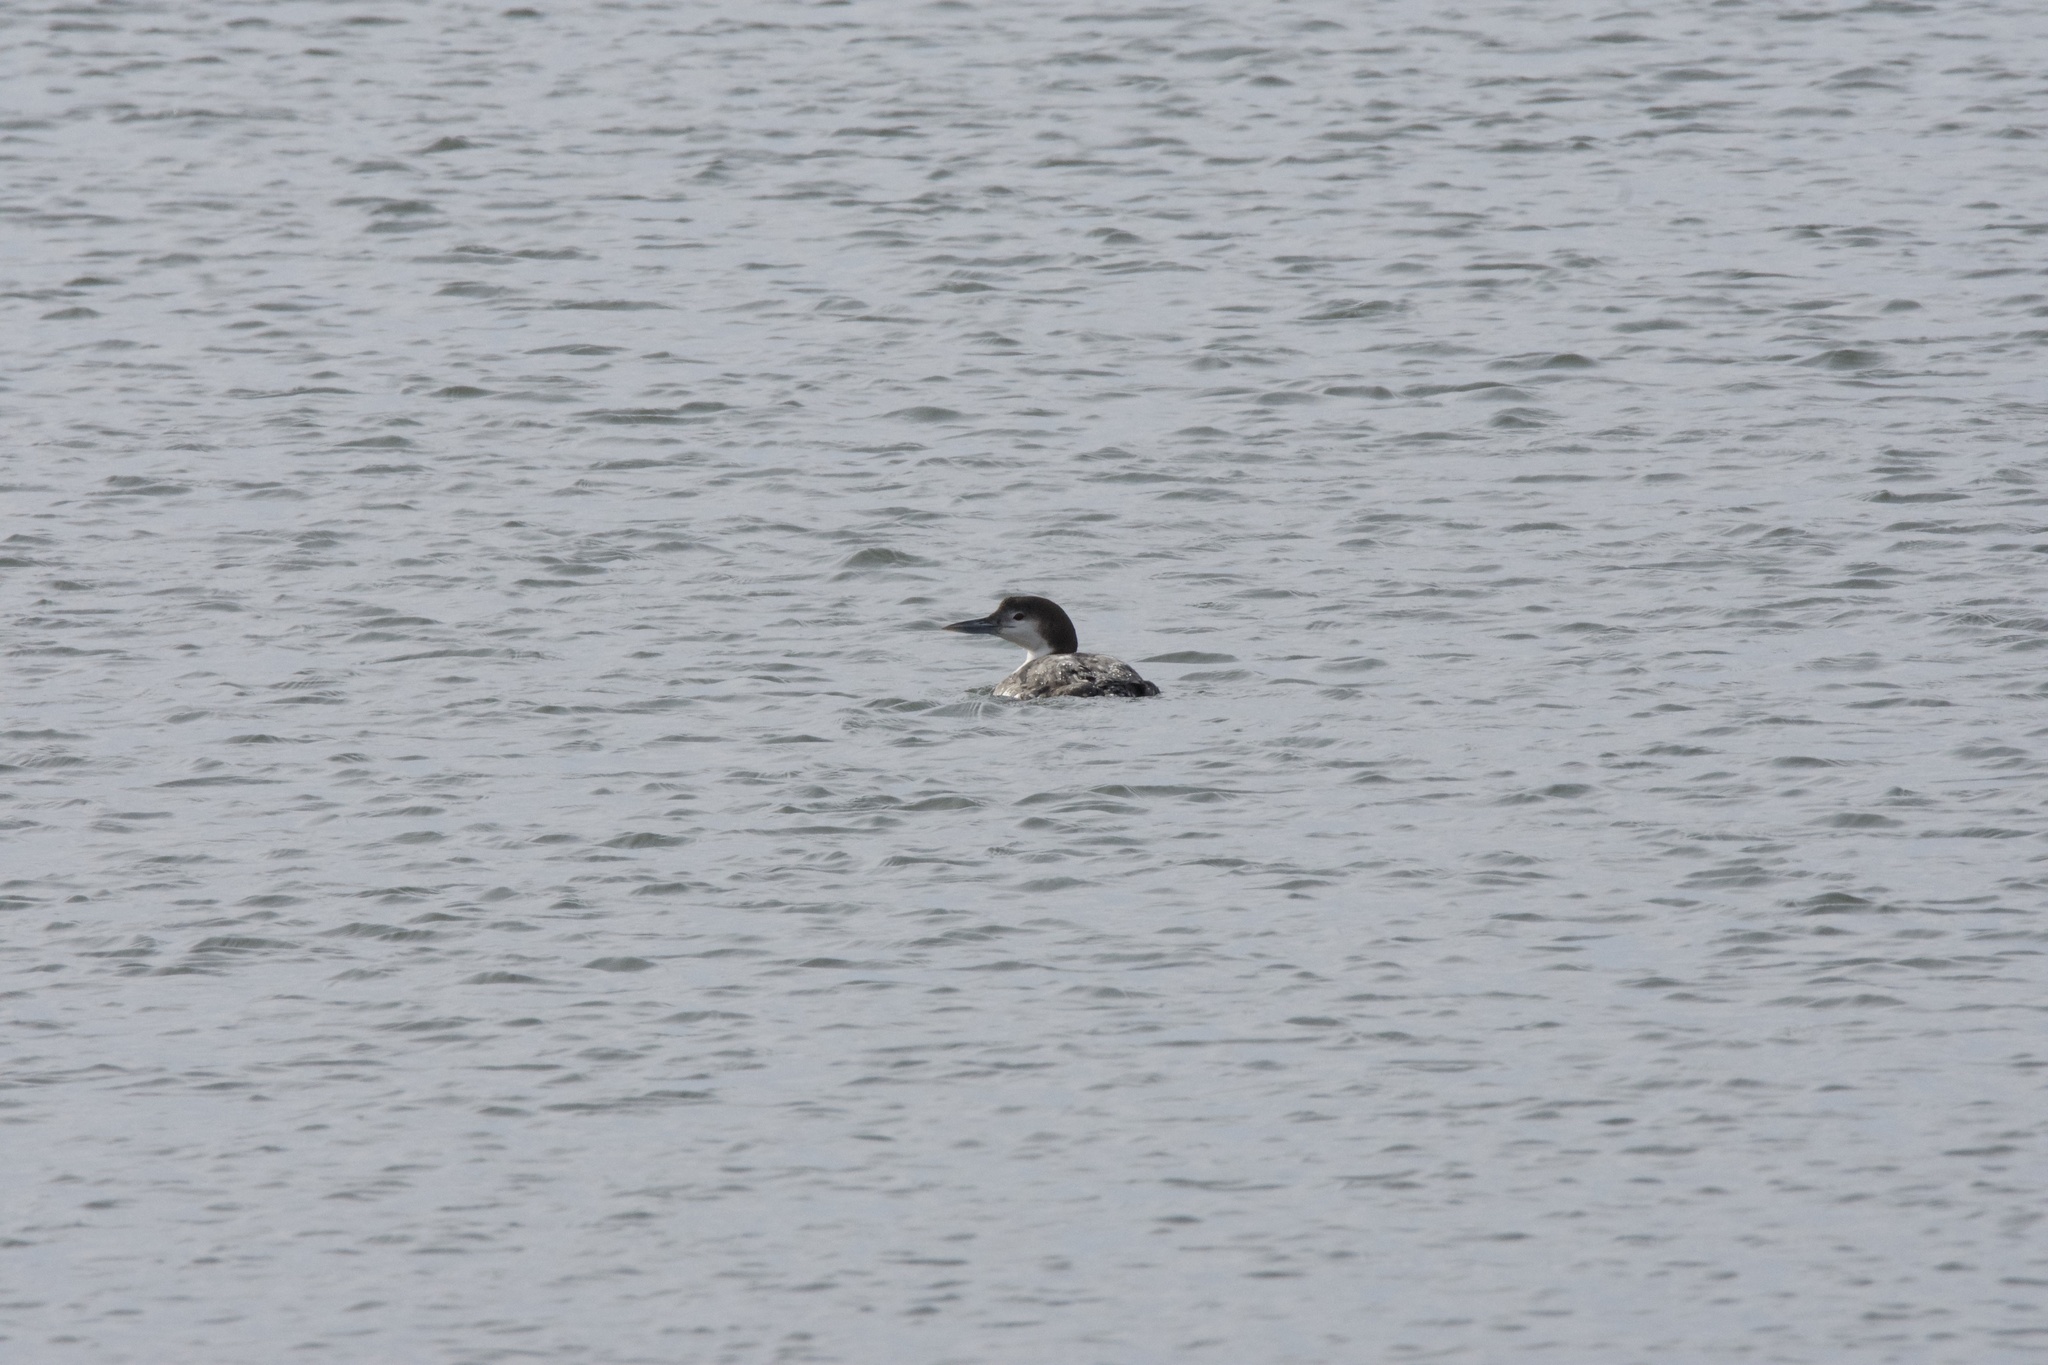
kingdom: Animalia
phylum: Chordata
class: Aves
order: Gaviiformes
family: Gaviidae
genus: Gavia
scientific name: Gavia immer
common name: Common loon
